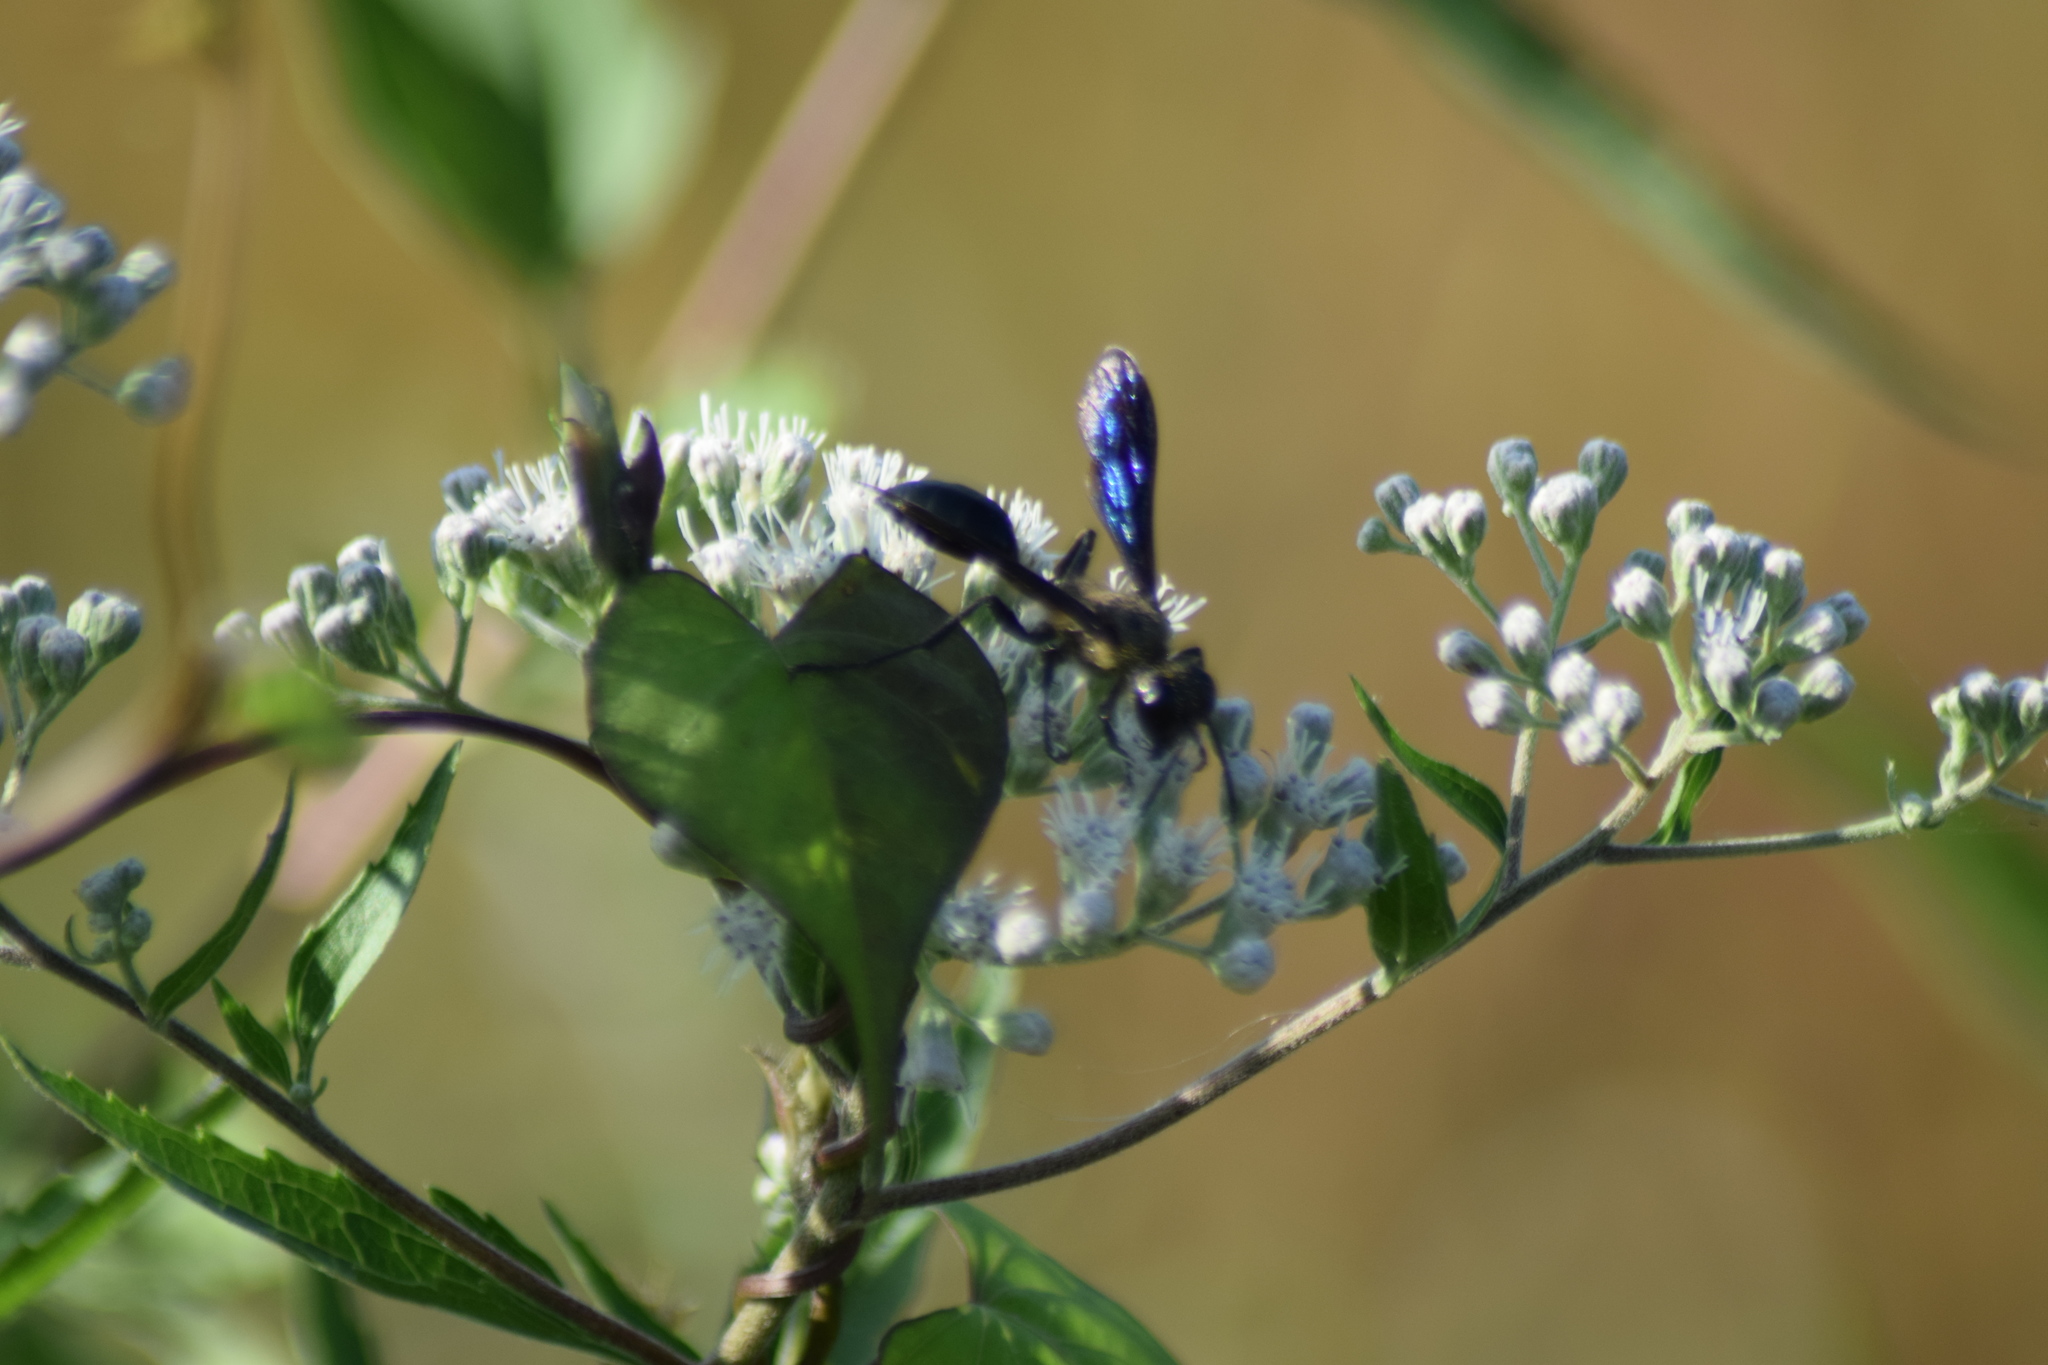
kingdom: Animalia
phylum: Arthropoda
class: Insecta
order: Hymenoptera
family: Sphecidae
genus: Isodontia
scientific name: Isodontia
